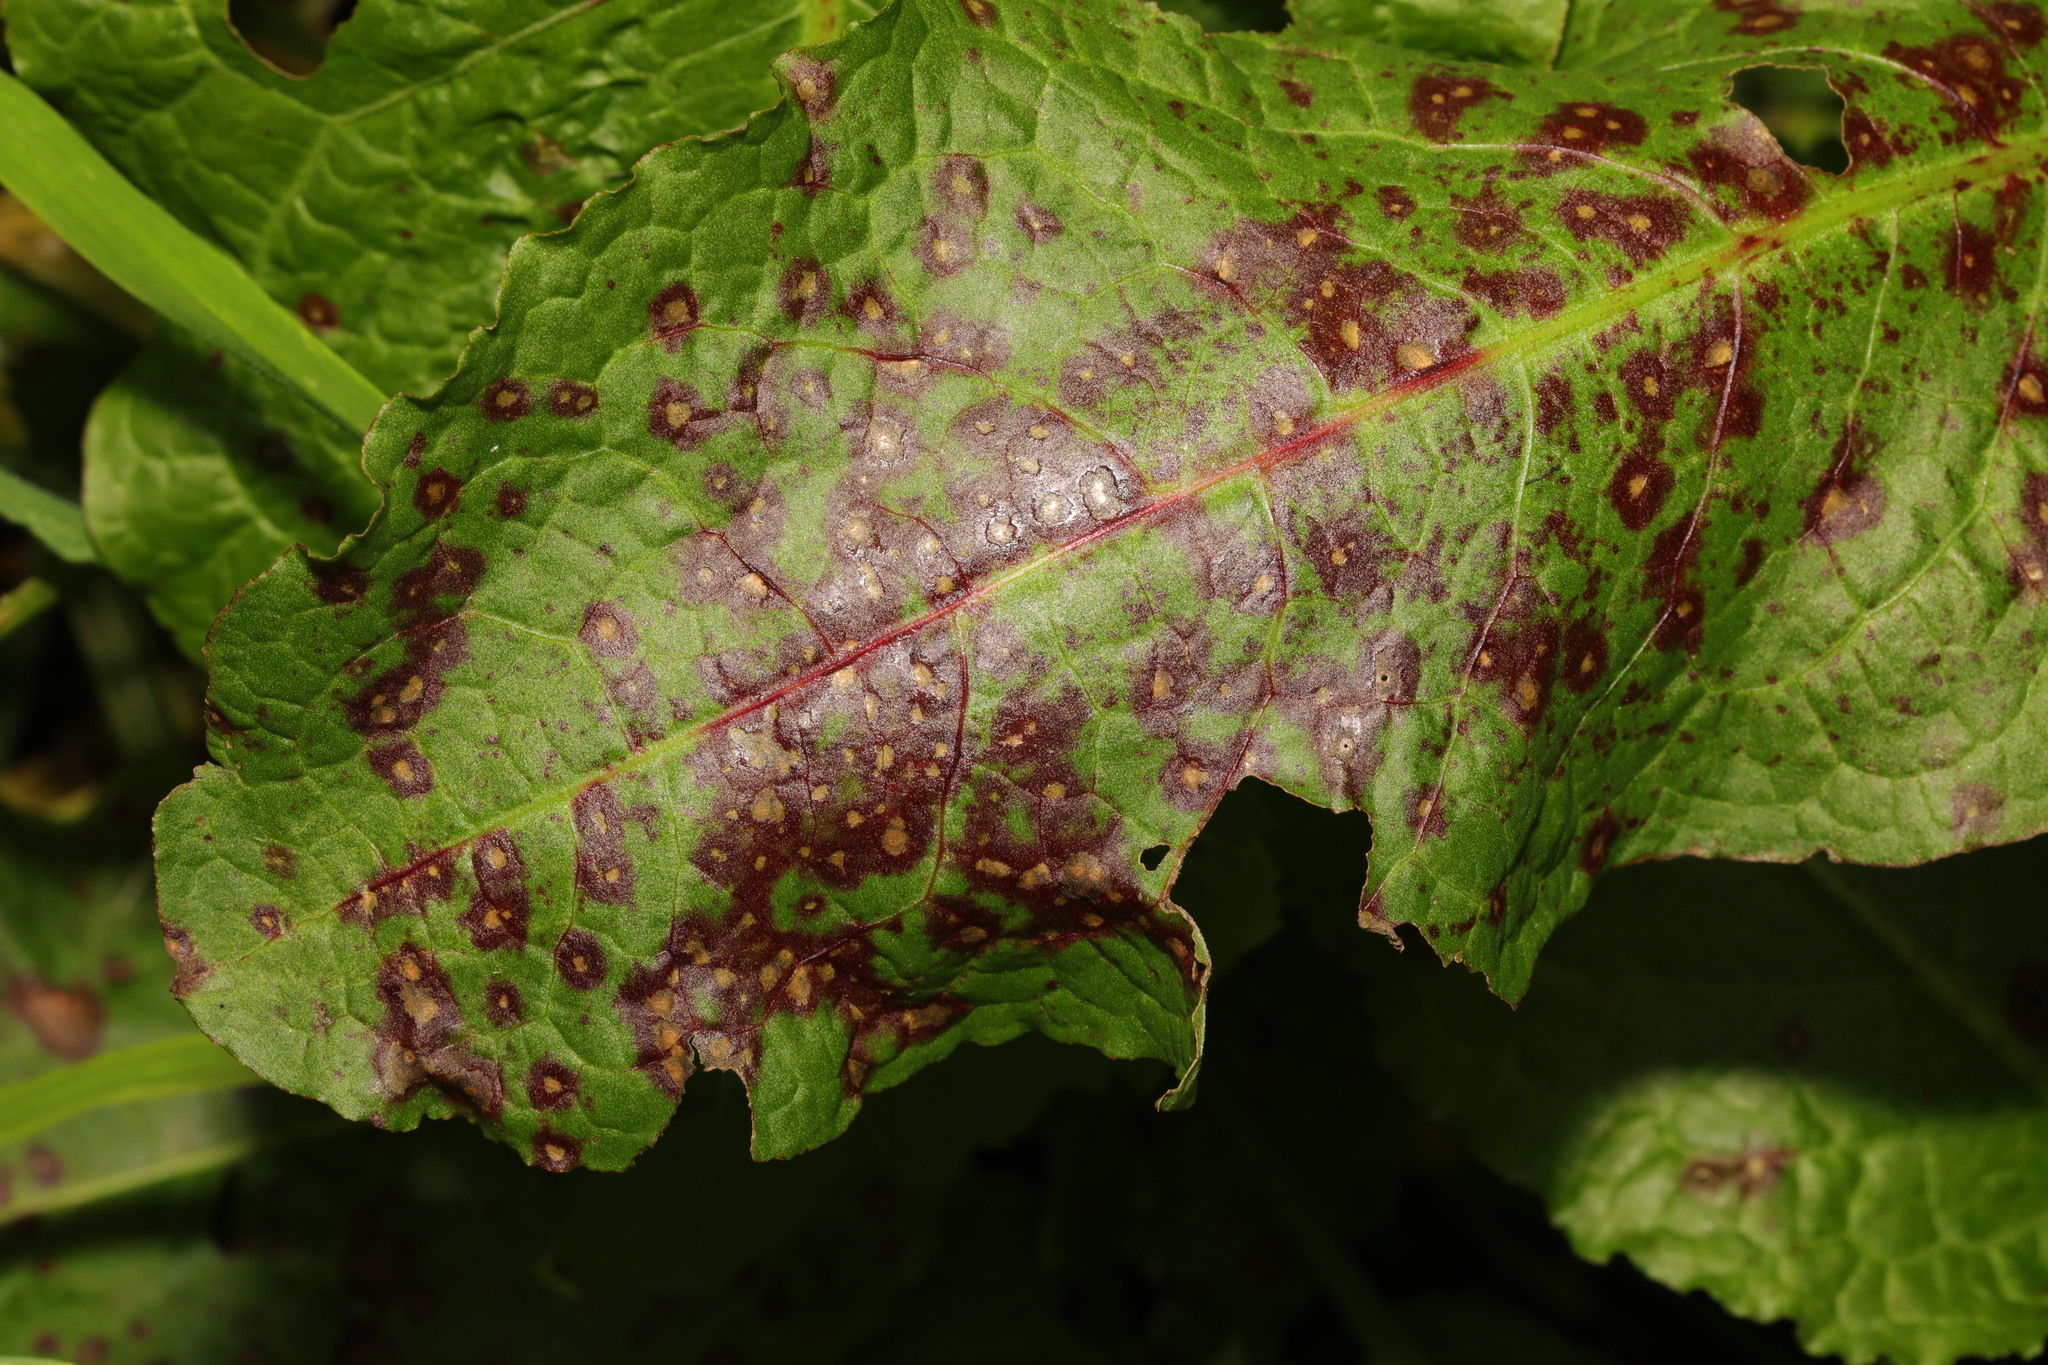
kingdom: Fungi
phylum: Ascomycota
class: Dothideomycetes
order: Mycosphaerellales
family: Mycosphaerellaceae
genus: Ramularia
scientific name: Ramularia rubella
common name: Red dock spot
